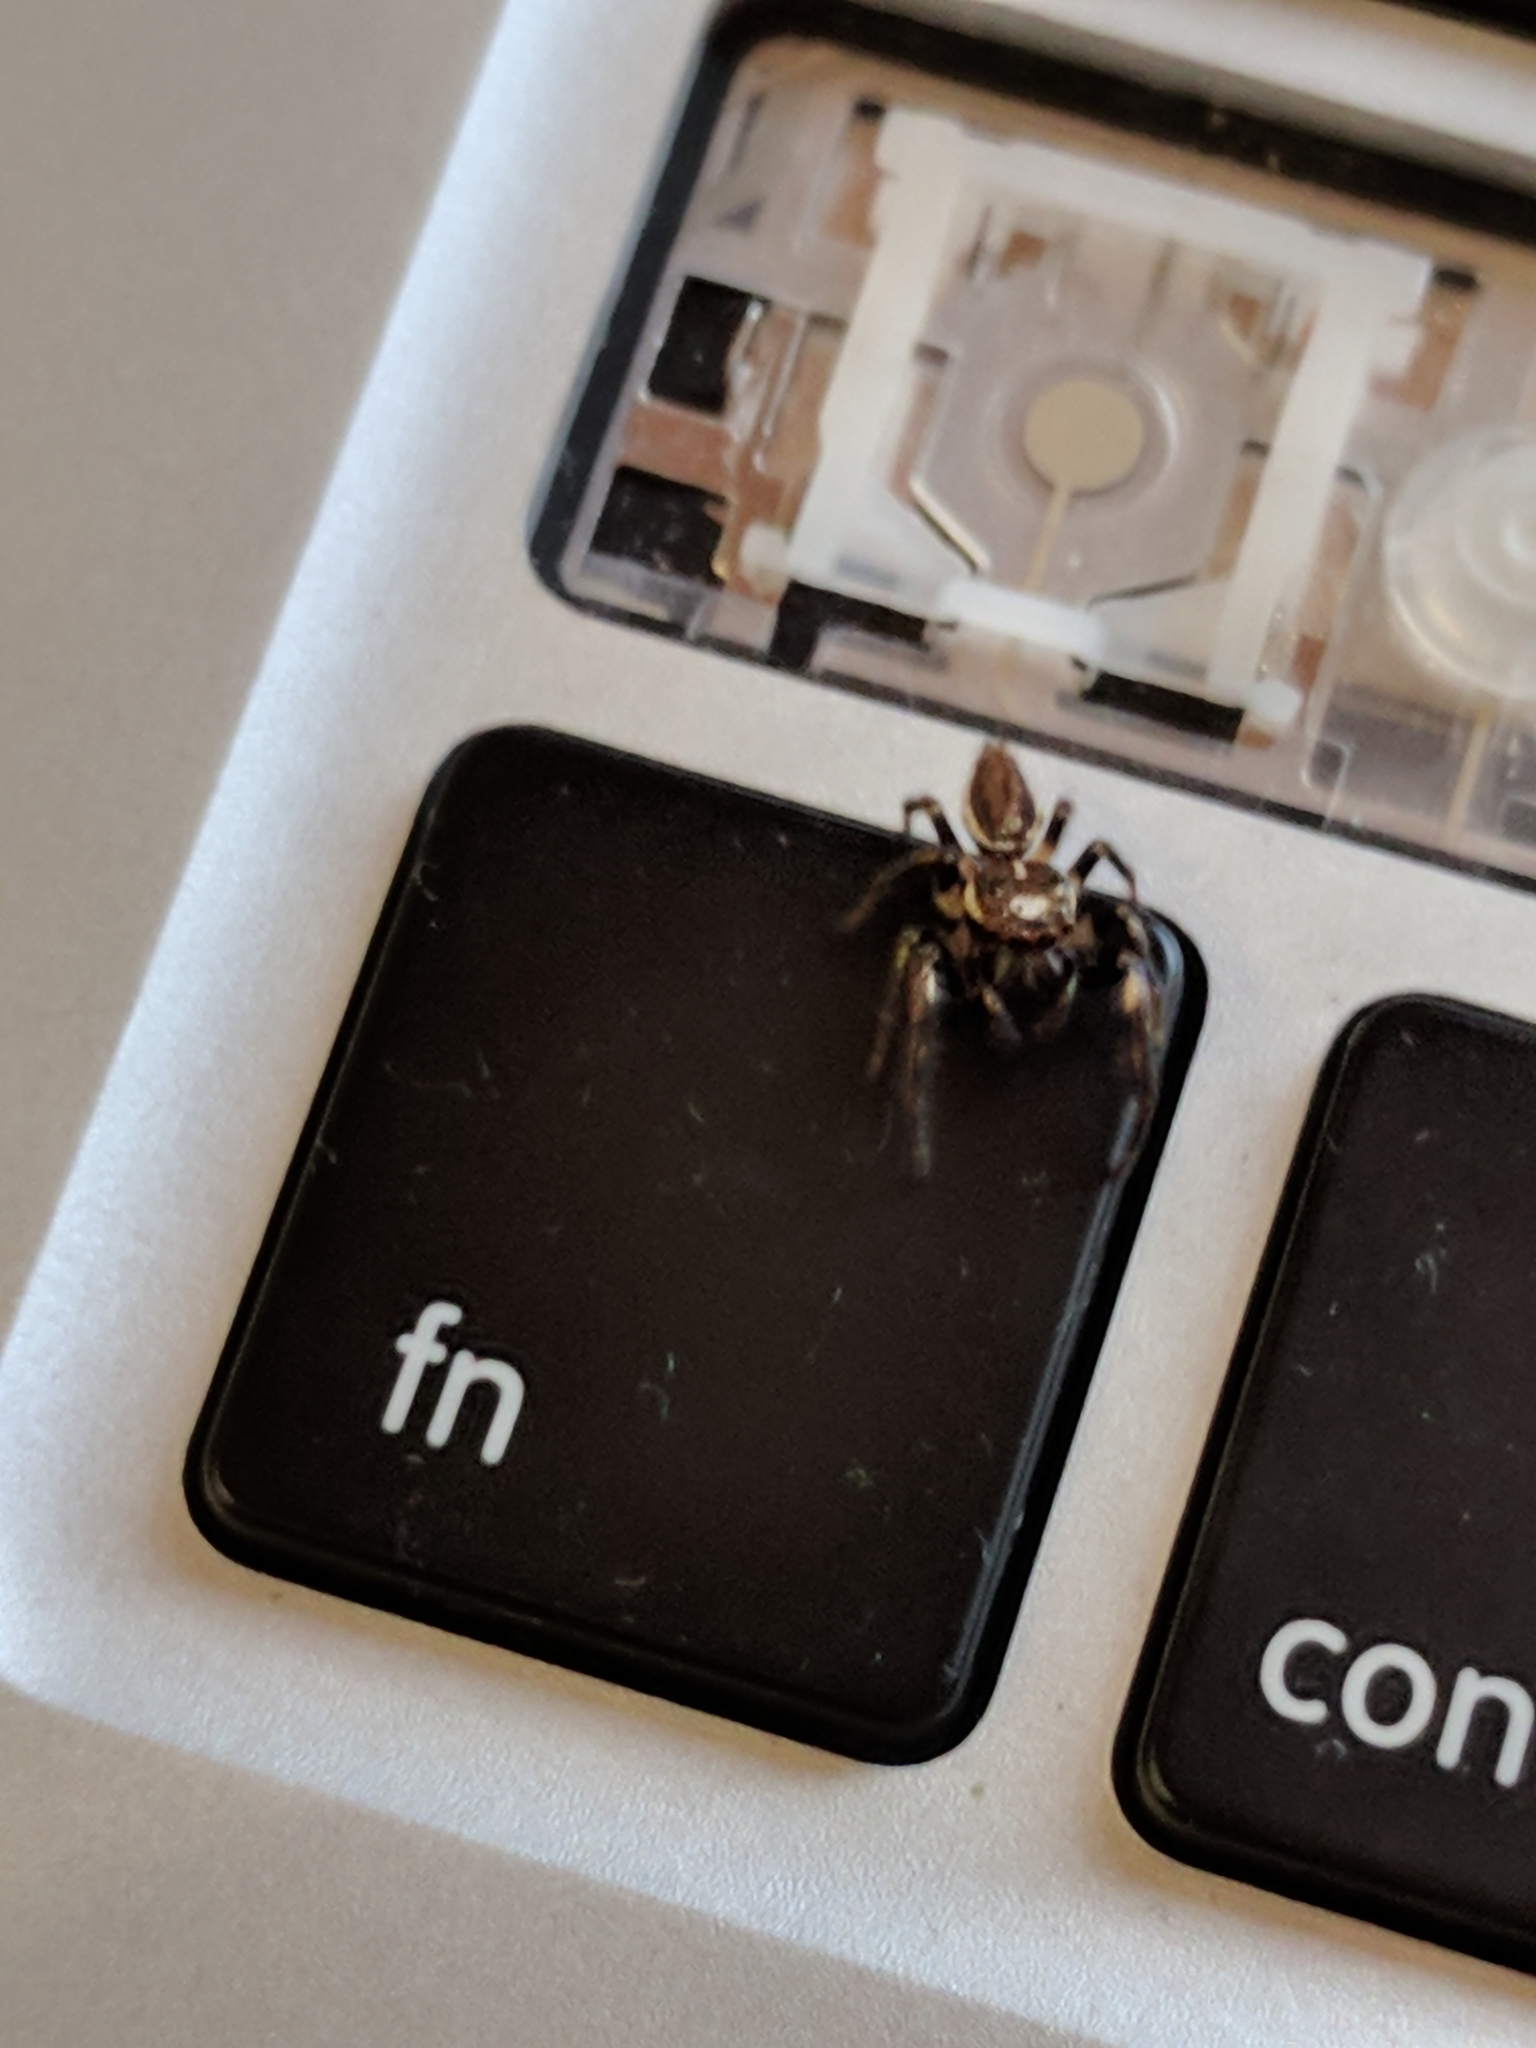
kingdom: Animalia
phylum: Arthropoda
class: Arachnida
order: Araneae
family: Salticidae
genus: Eris
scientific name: Eris militaris
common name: Bronze jumper
